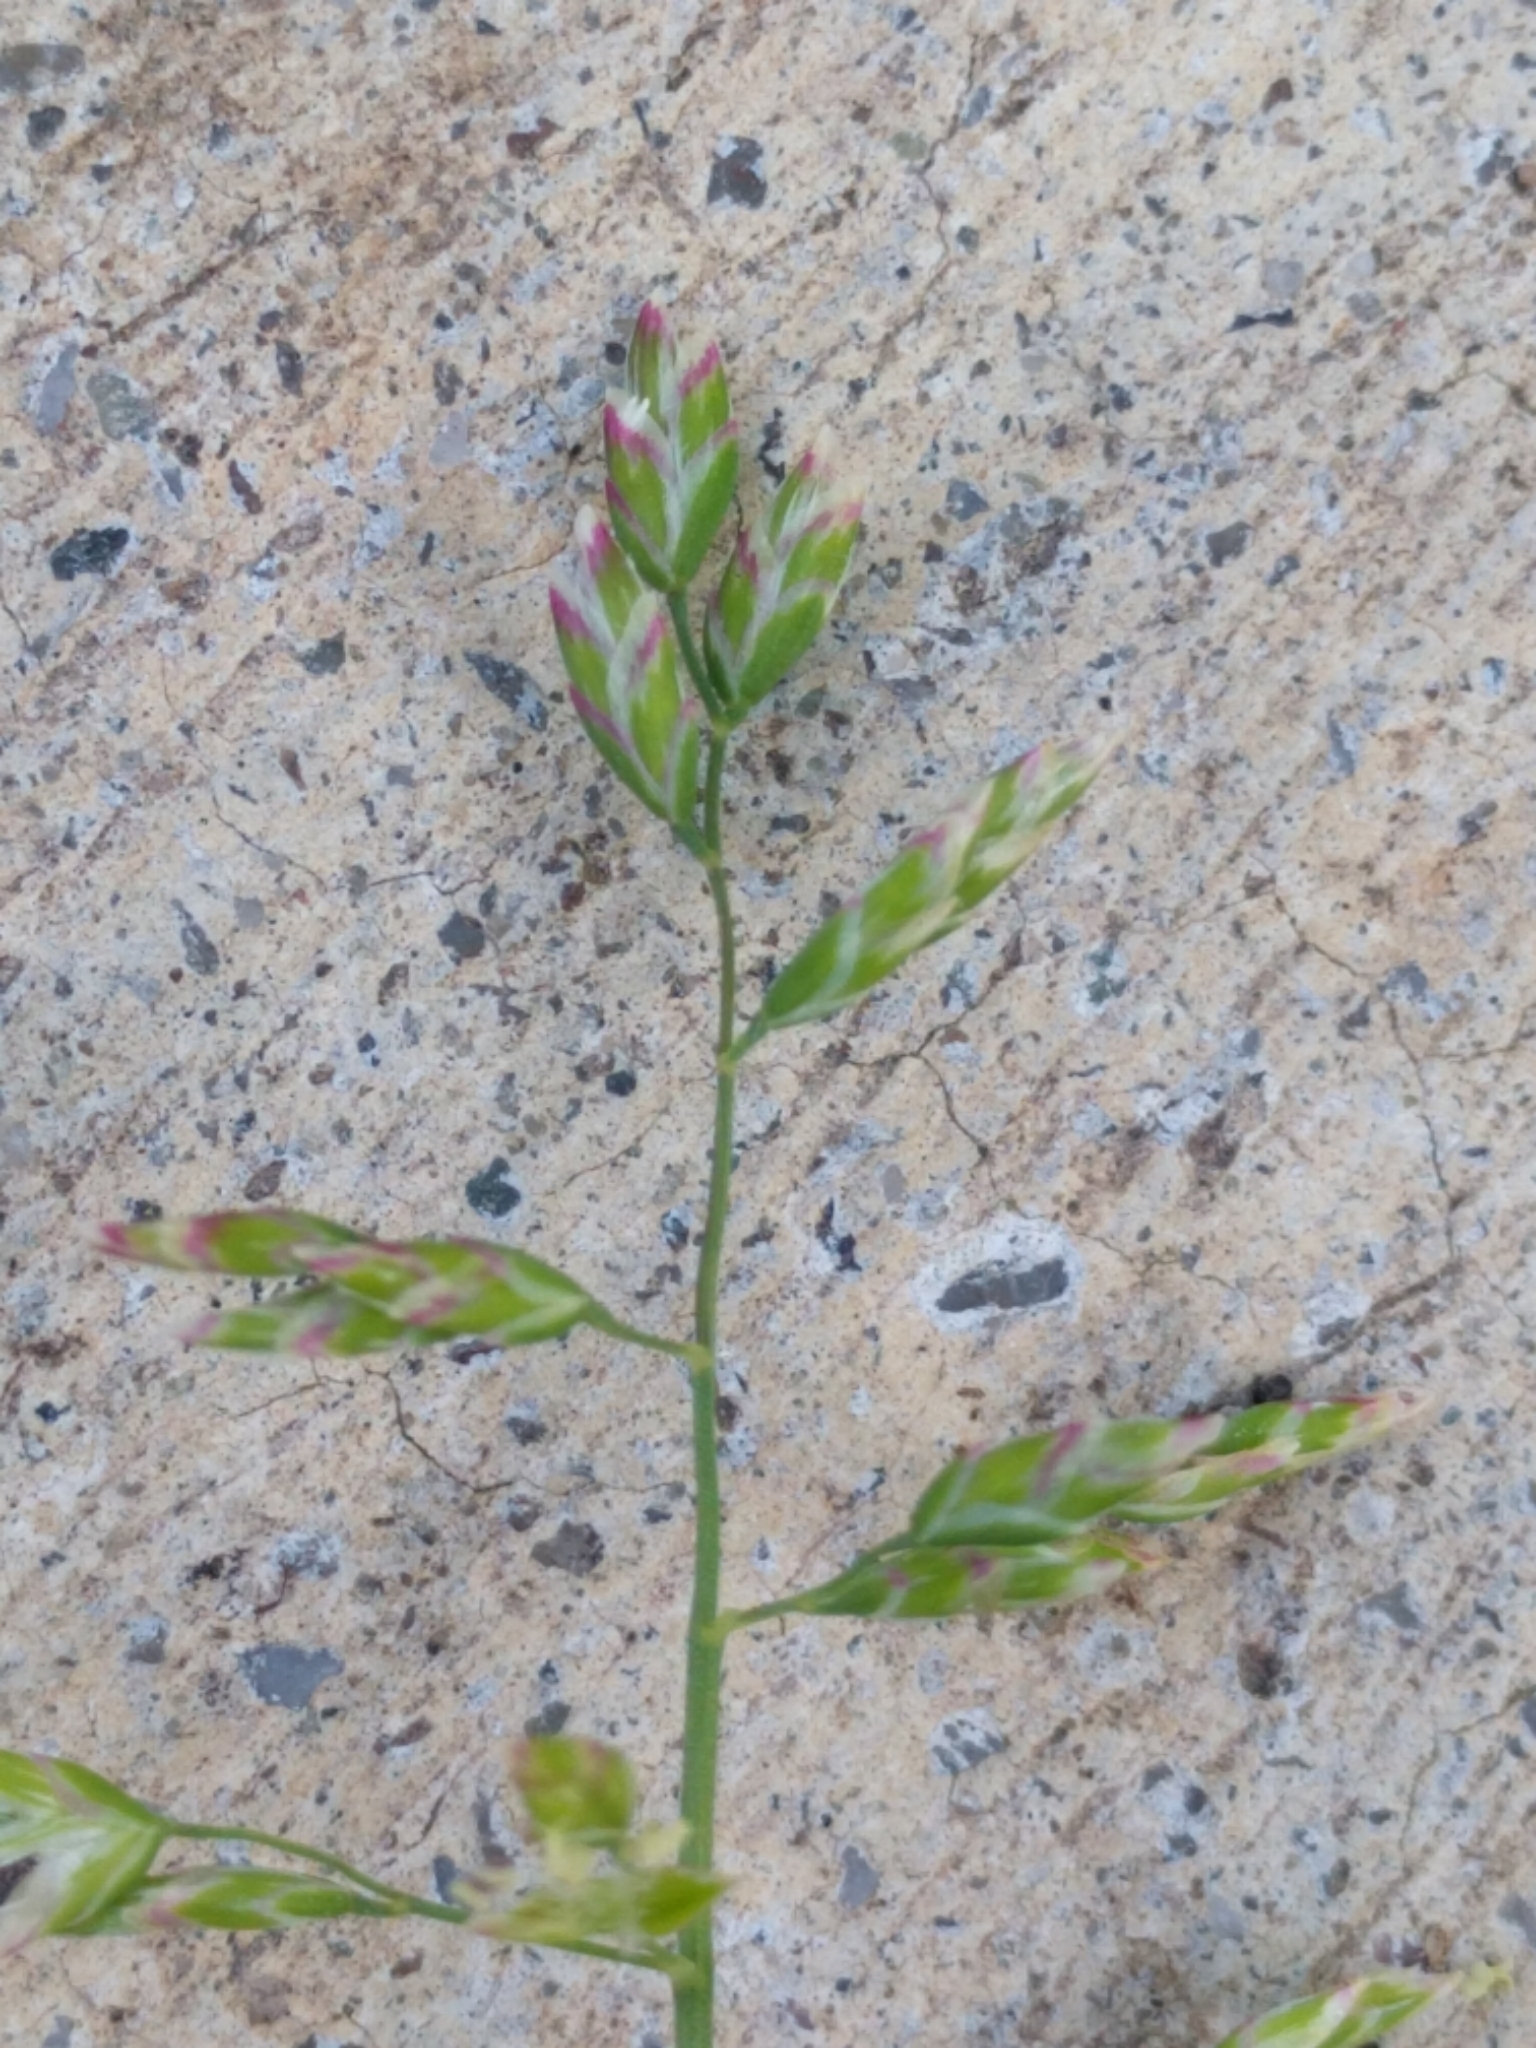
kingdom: Plantae
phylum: Tracheophyta
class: Liliopsida
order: Poales
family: Poaceae
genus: Poa
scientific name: Poa annua
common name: Annual bluegrass
